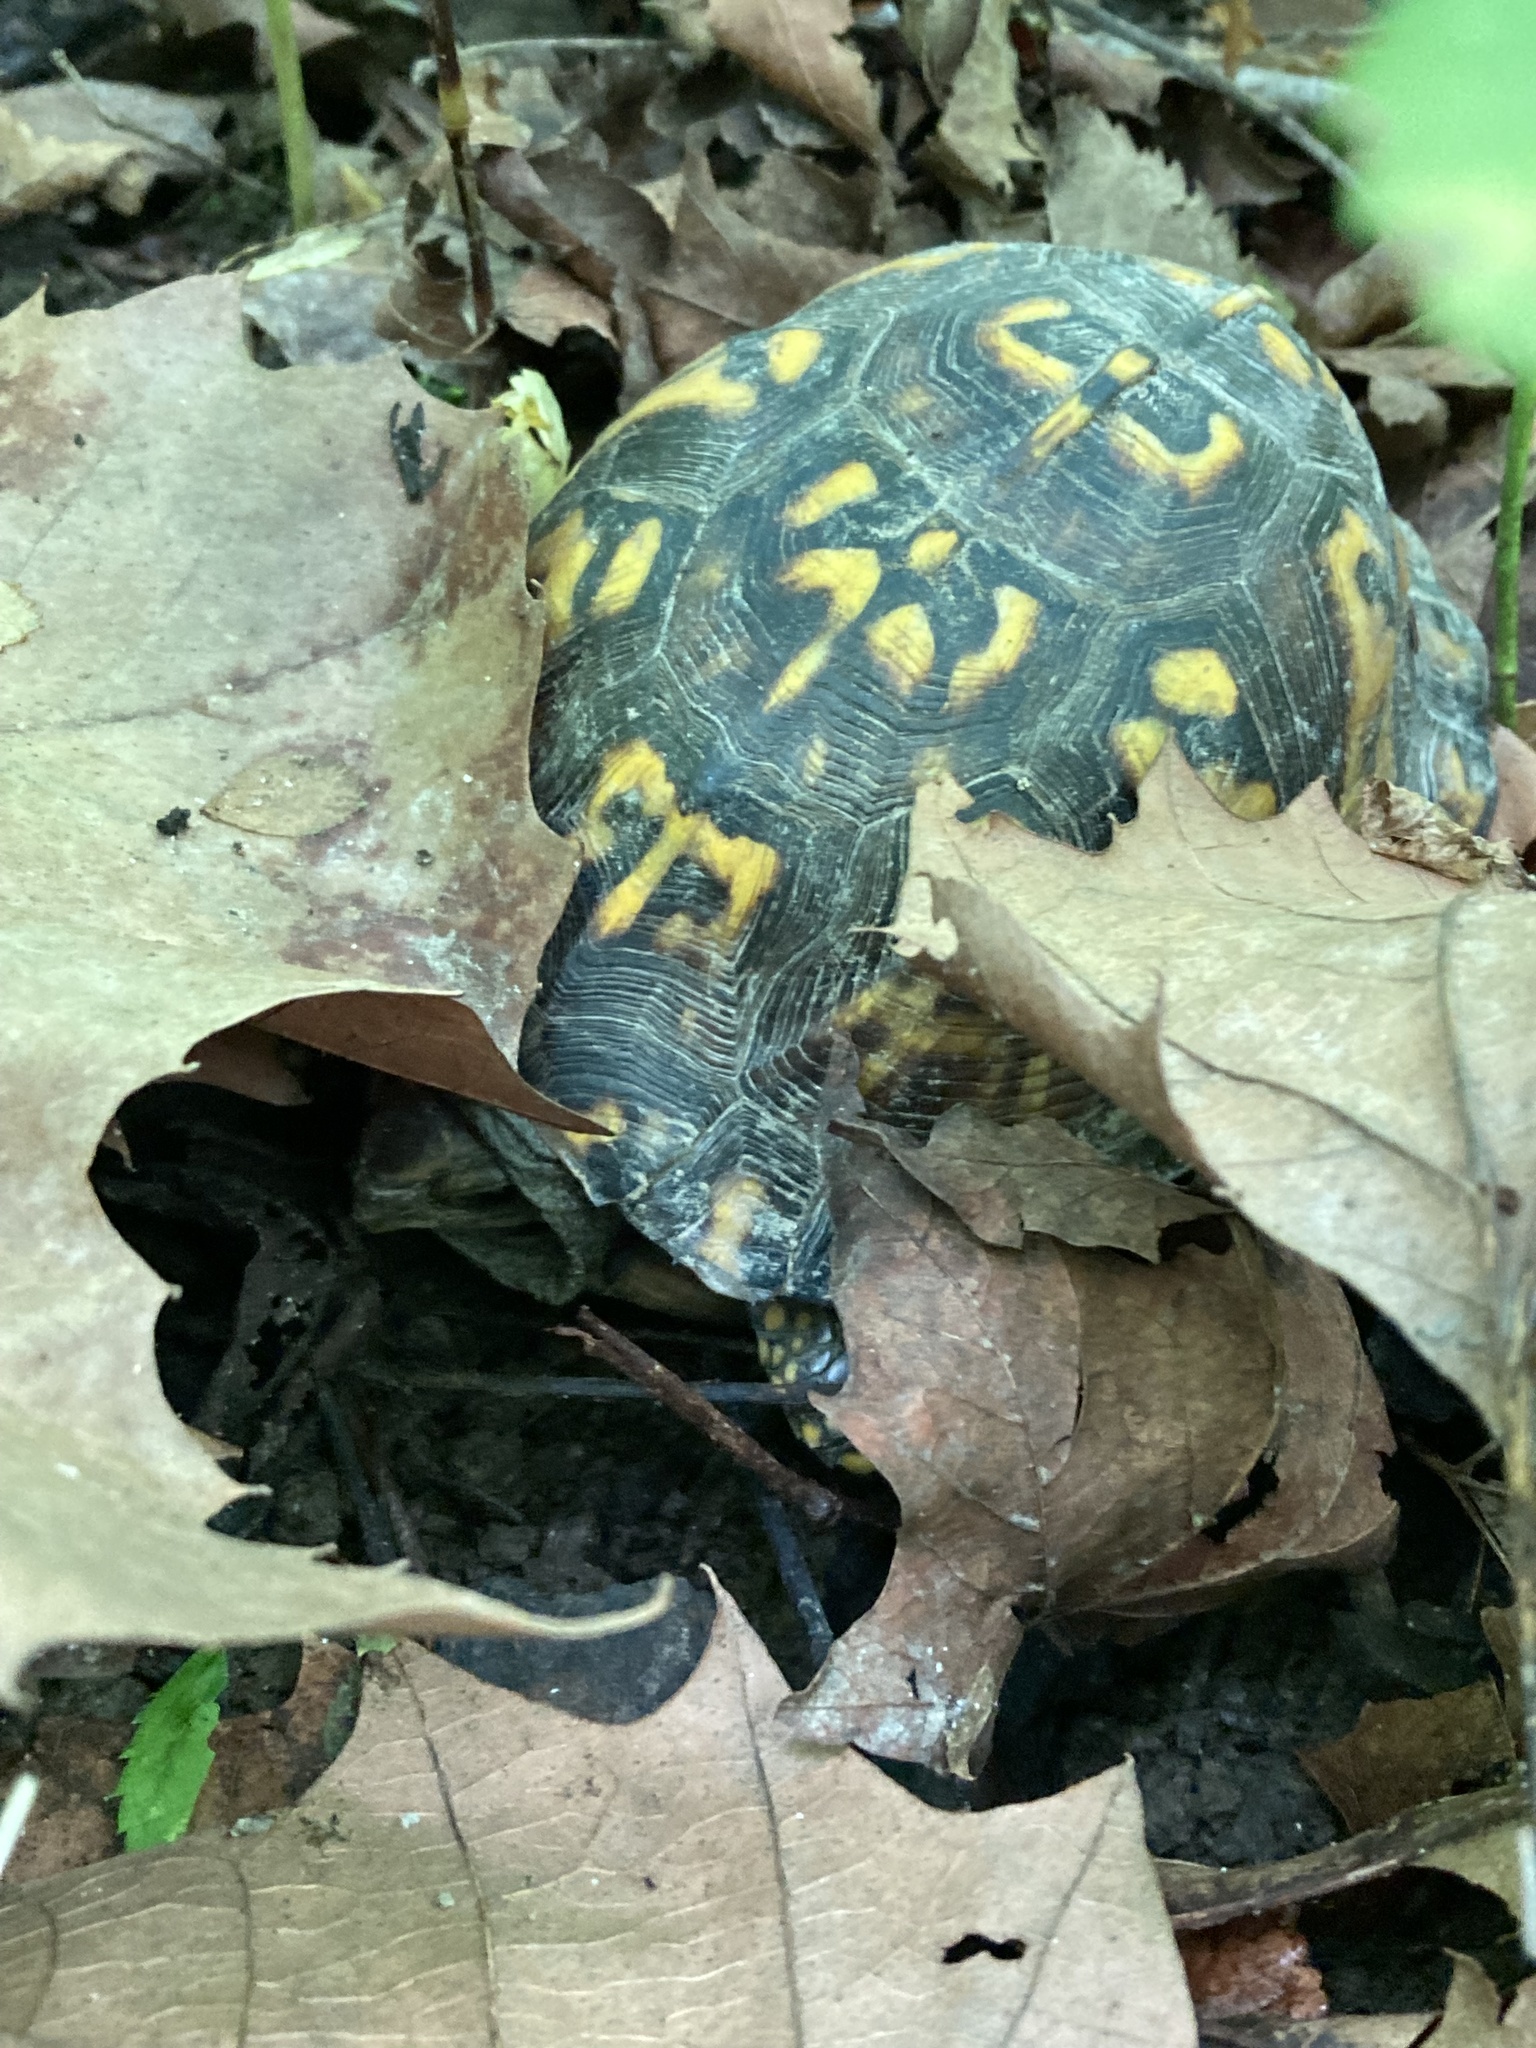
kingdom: Animalia
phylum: Chordata
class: Testudines
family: Emydidae
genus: Terrapene
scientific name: Terrapene carolina
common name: Common box turtle
